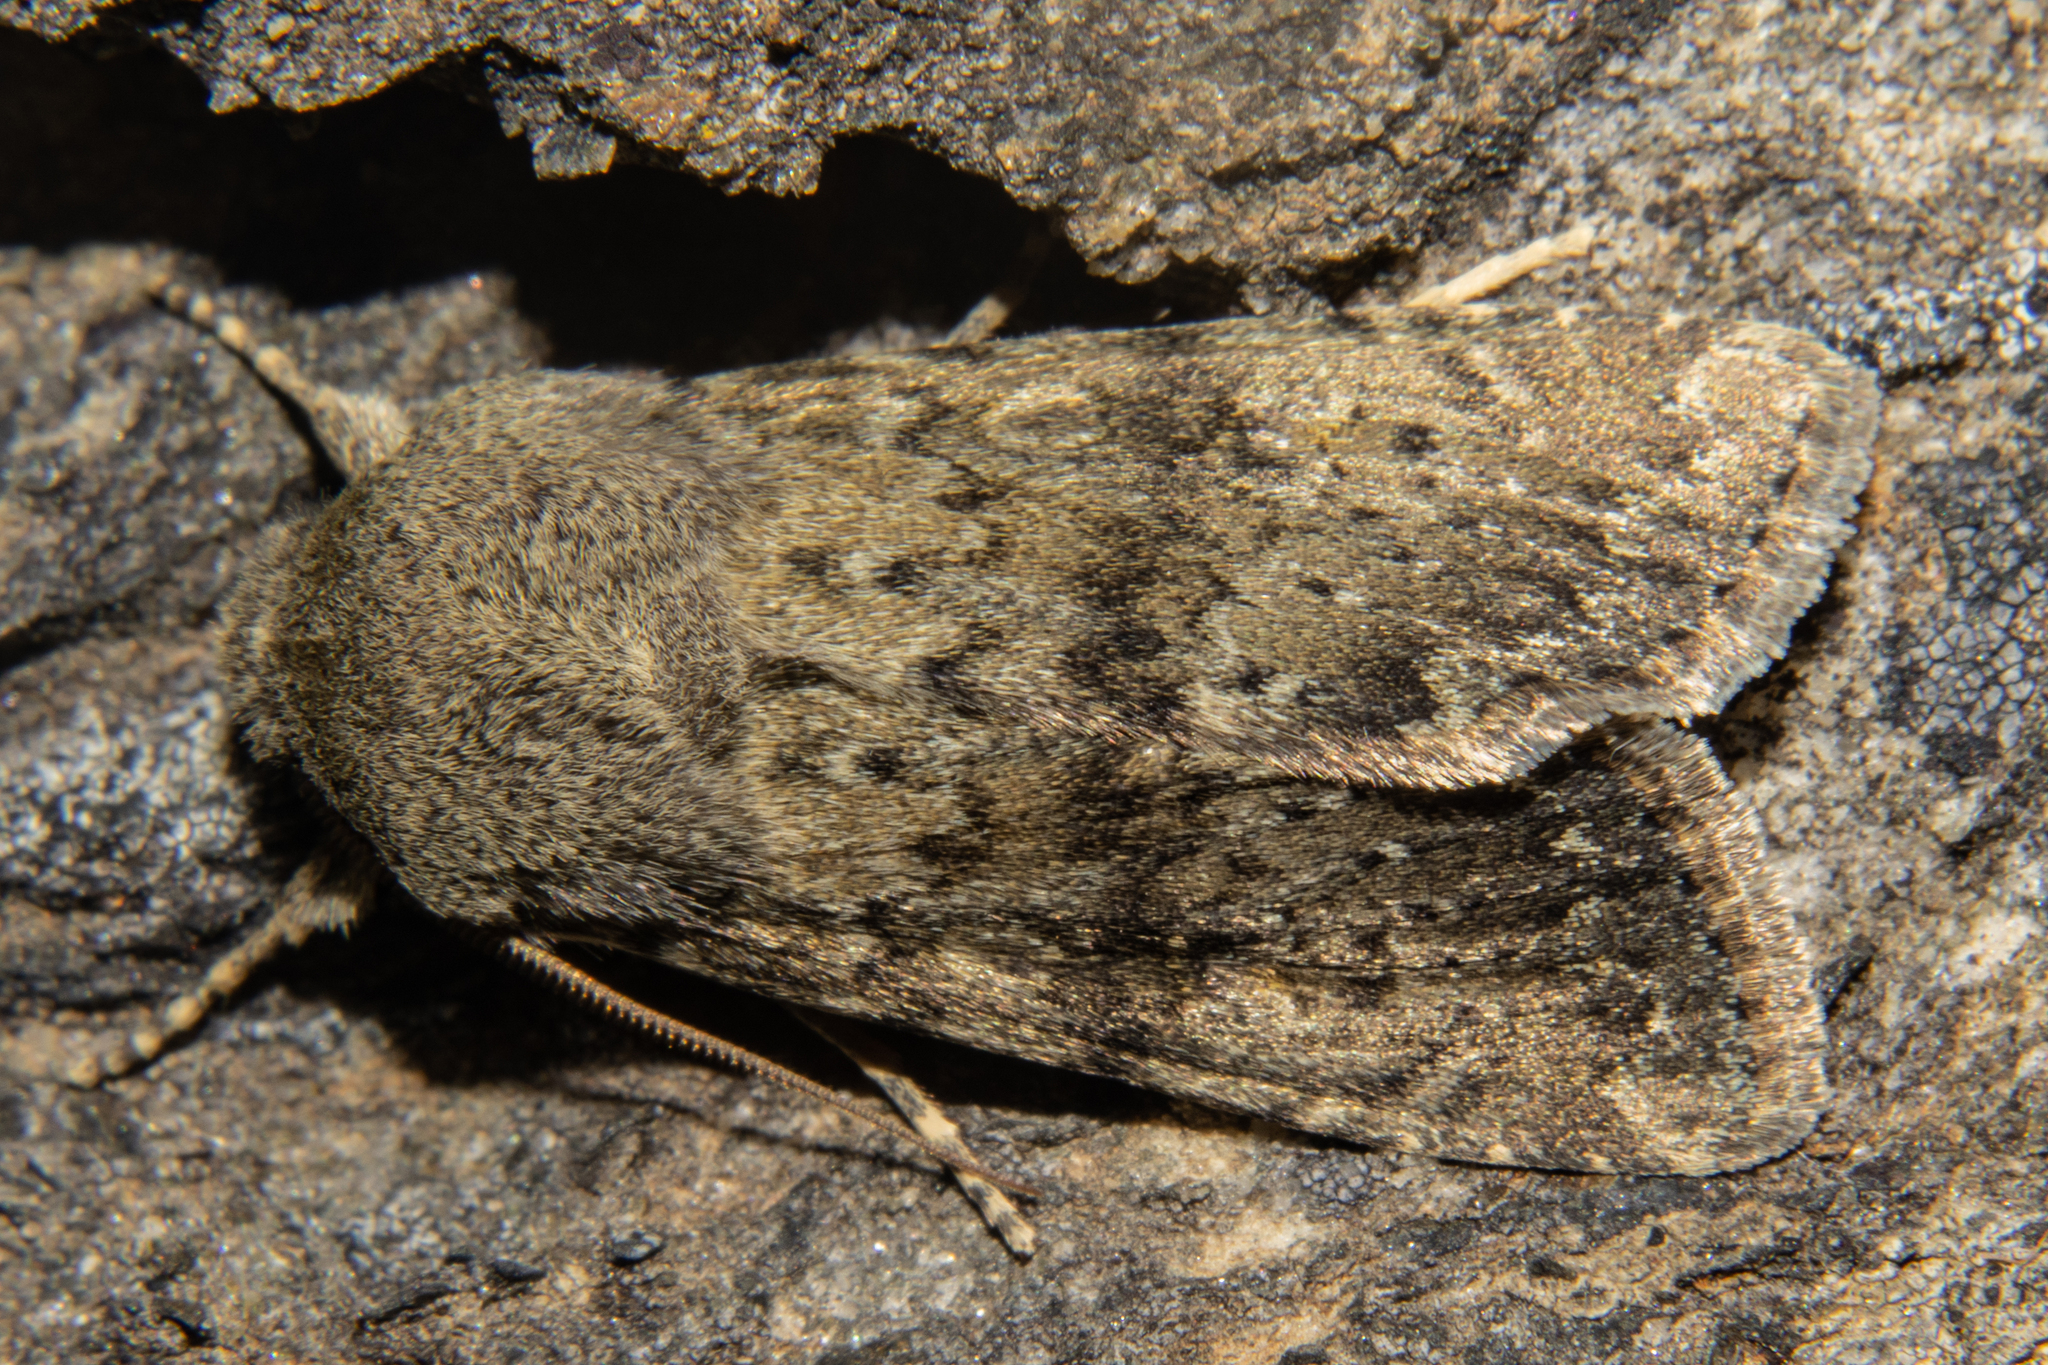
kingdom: Animalia
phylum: Arthropoda
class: Insecta
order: Lepidoptera
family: Noctuidae
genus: Ichneutica
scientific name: Ichneutica moderata
